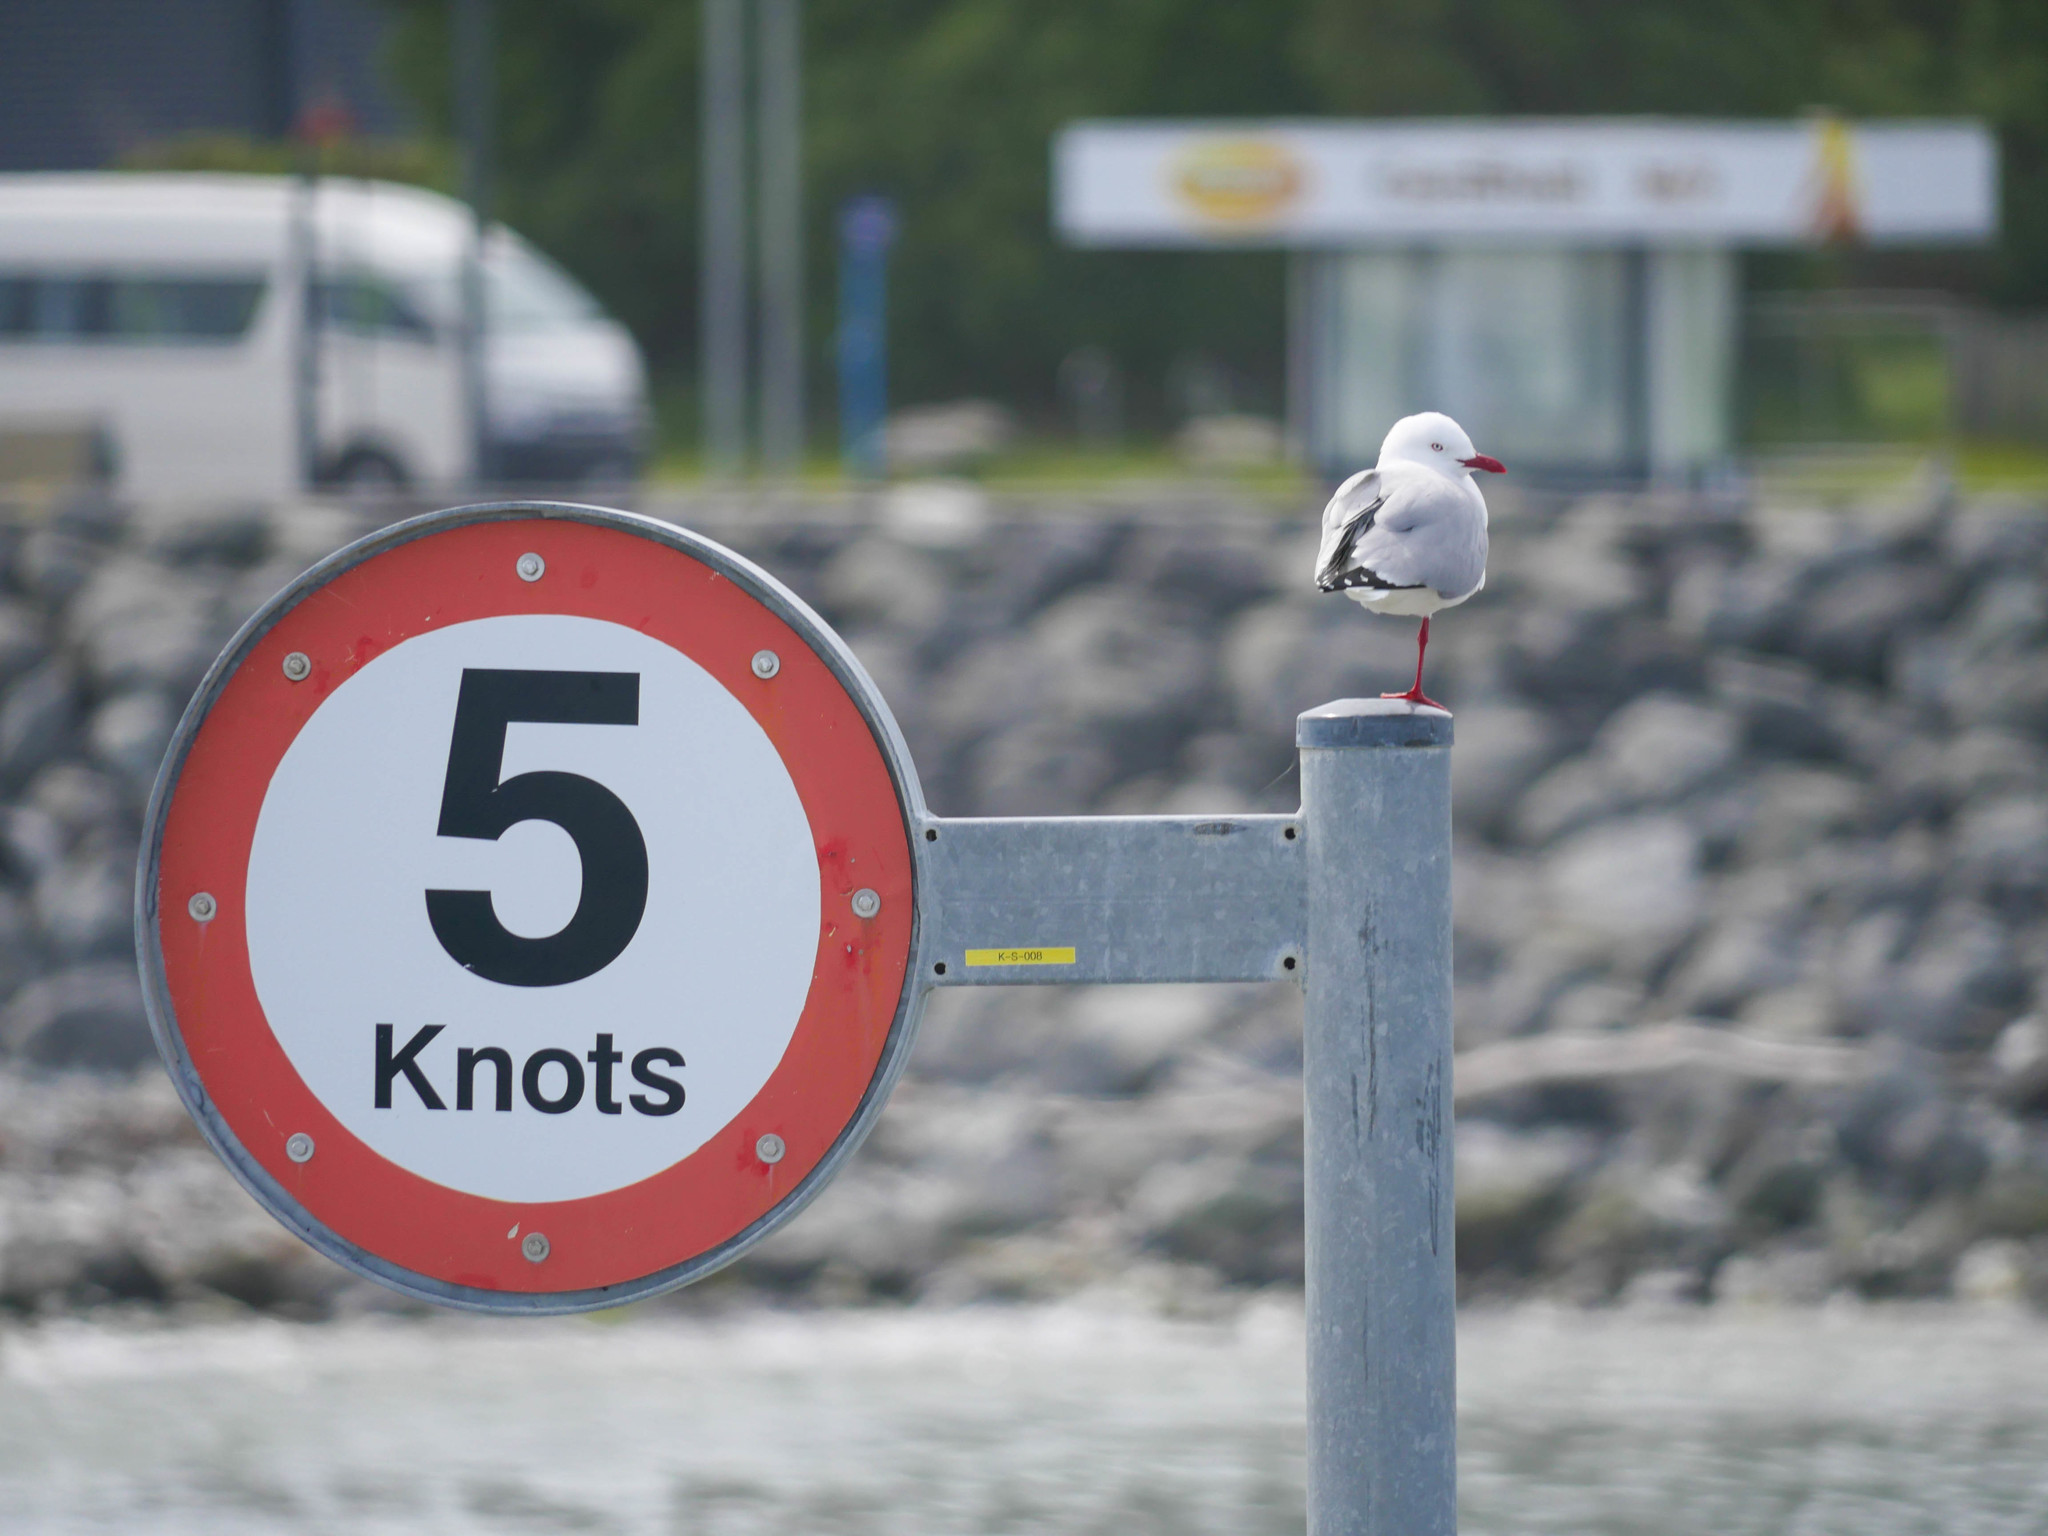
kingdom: Animalia
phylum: Chordata
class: Aves
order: Charadriiformes
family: Laridae
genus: Chroicocephalus
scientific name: Chroicocephalus novaehollandiae
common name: Silver gull
